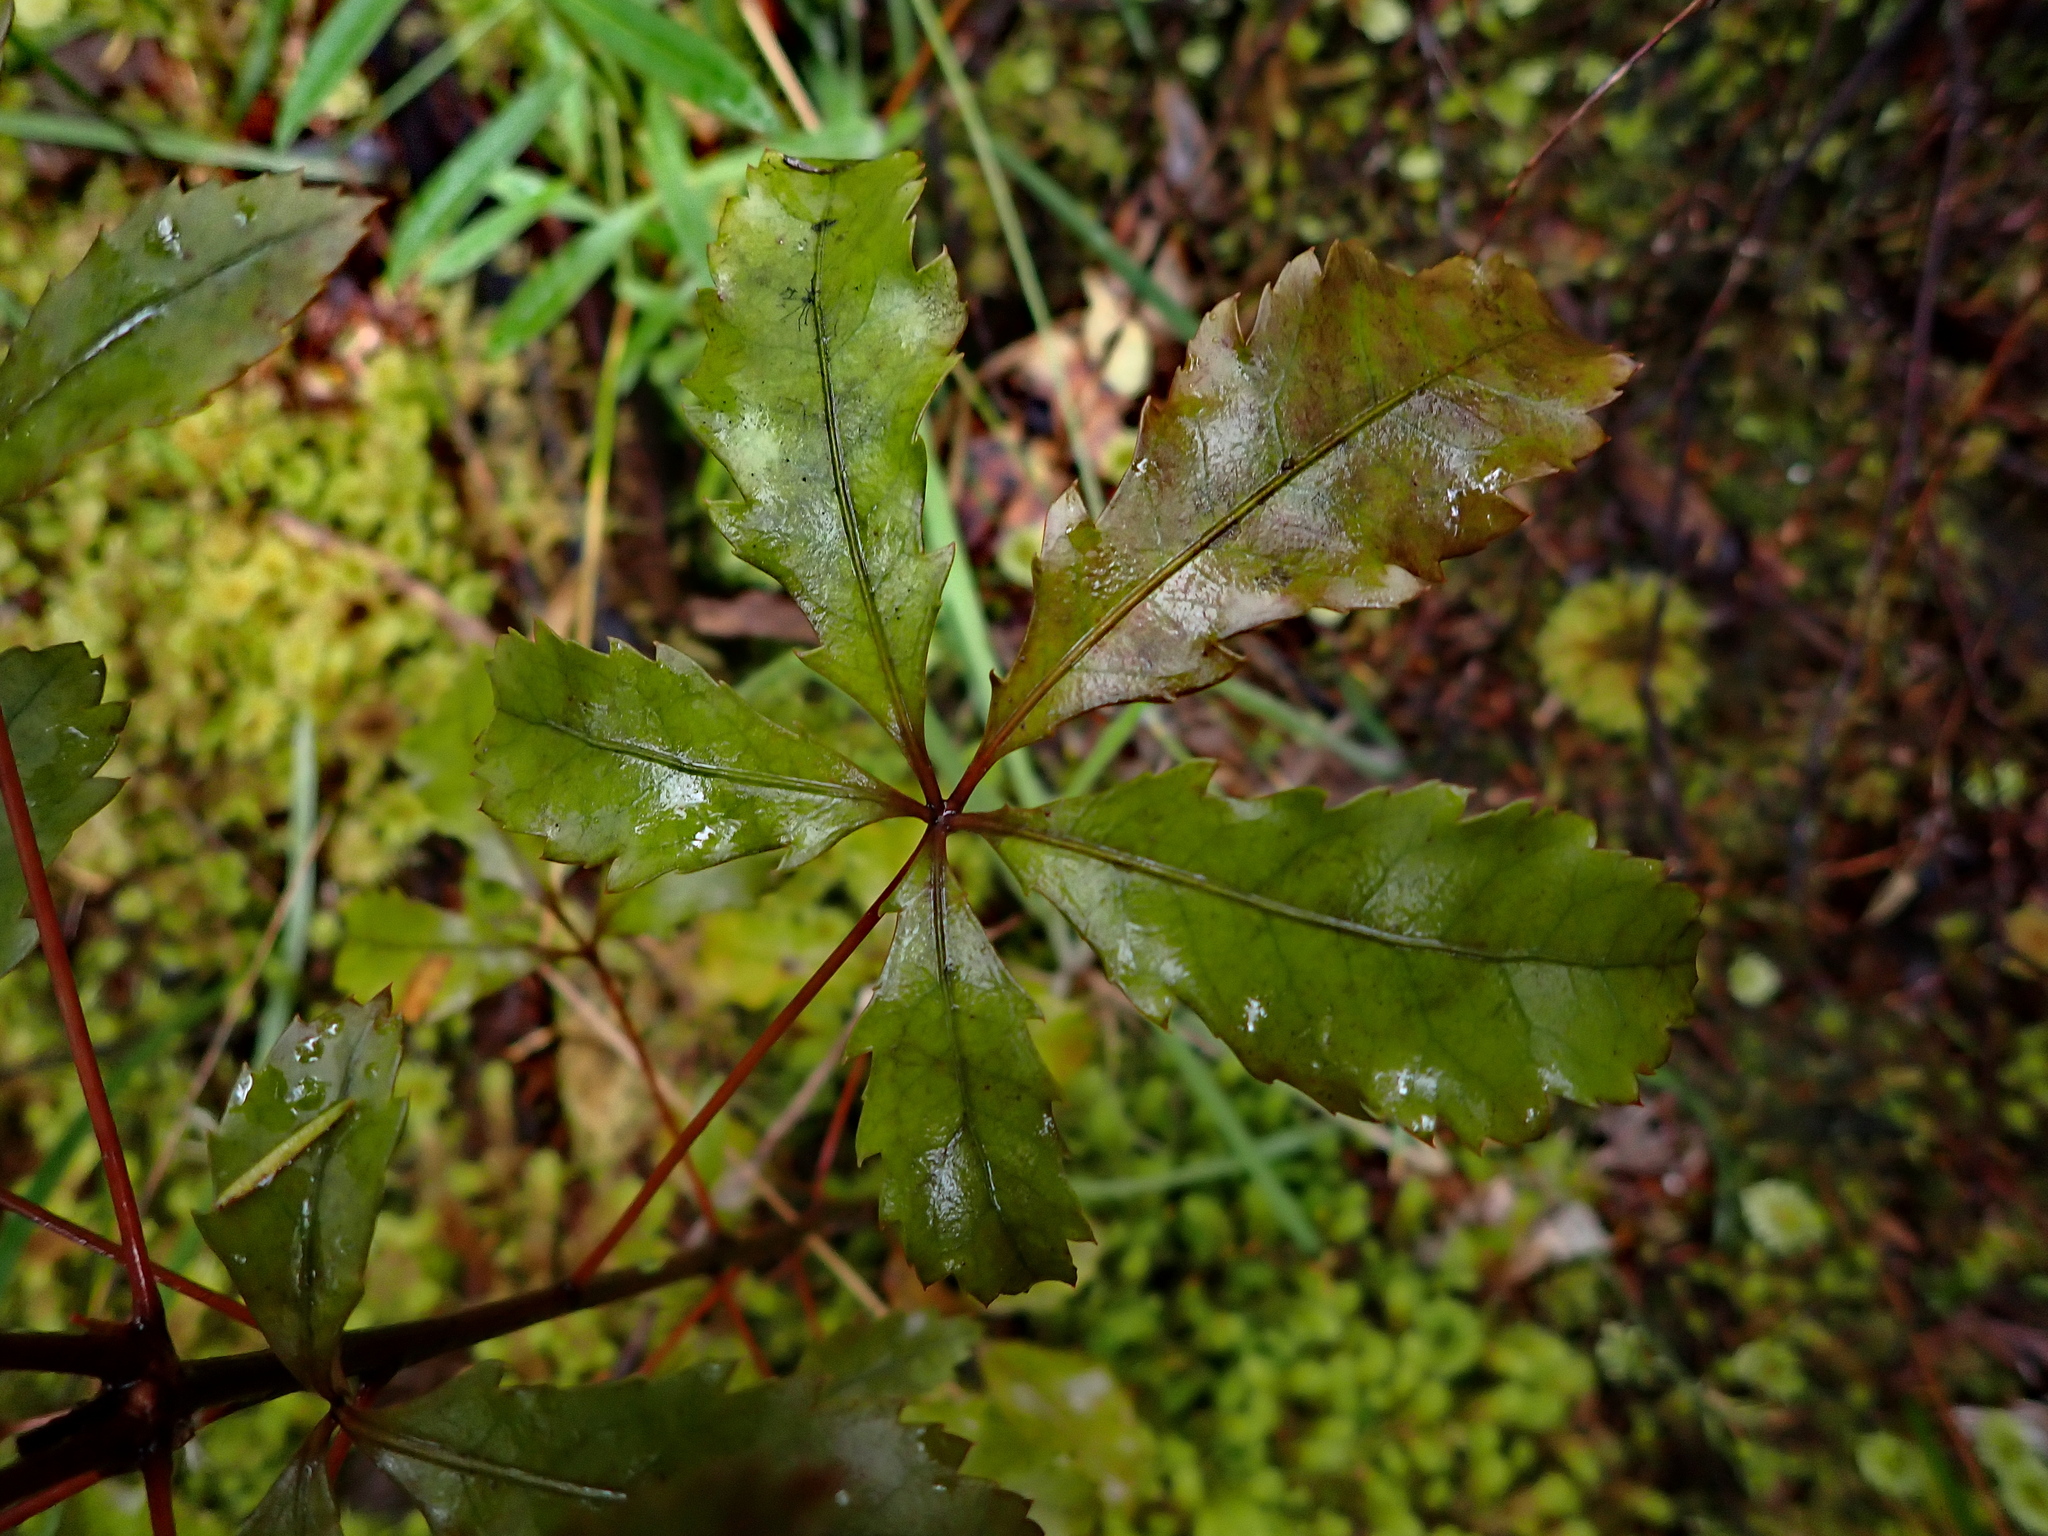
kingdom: Plantae
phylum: Tracheophyta
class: Magnoliopsida
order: Apiales
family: Araliaceae
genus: Pseudopanax
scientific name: Pseudopanax discolor
